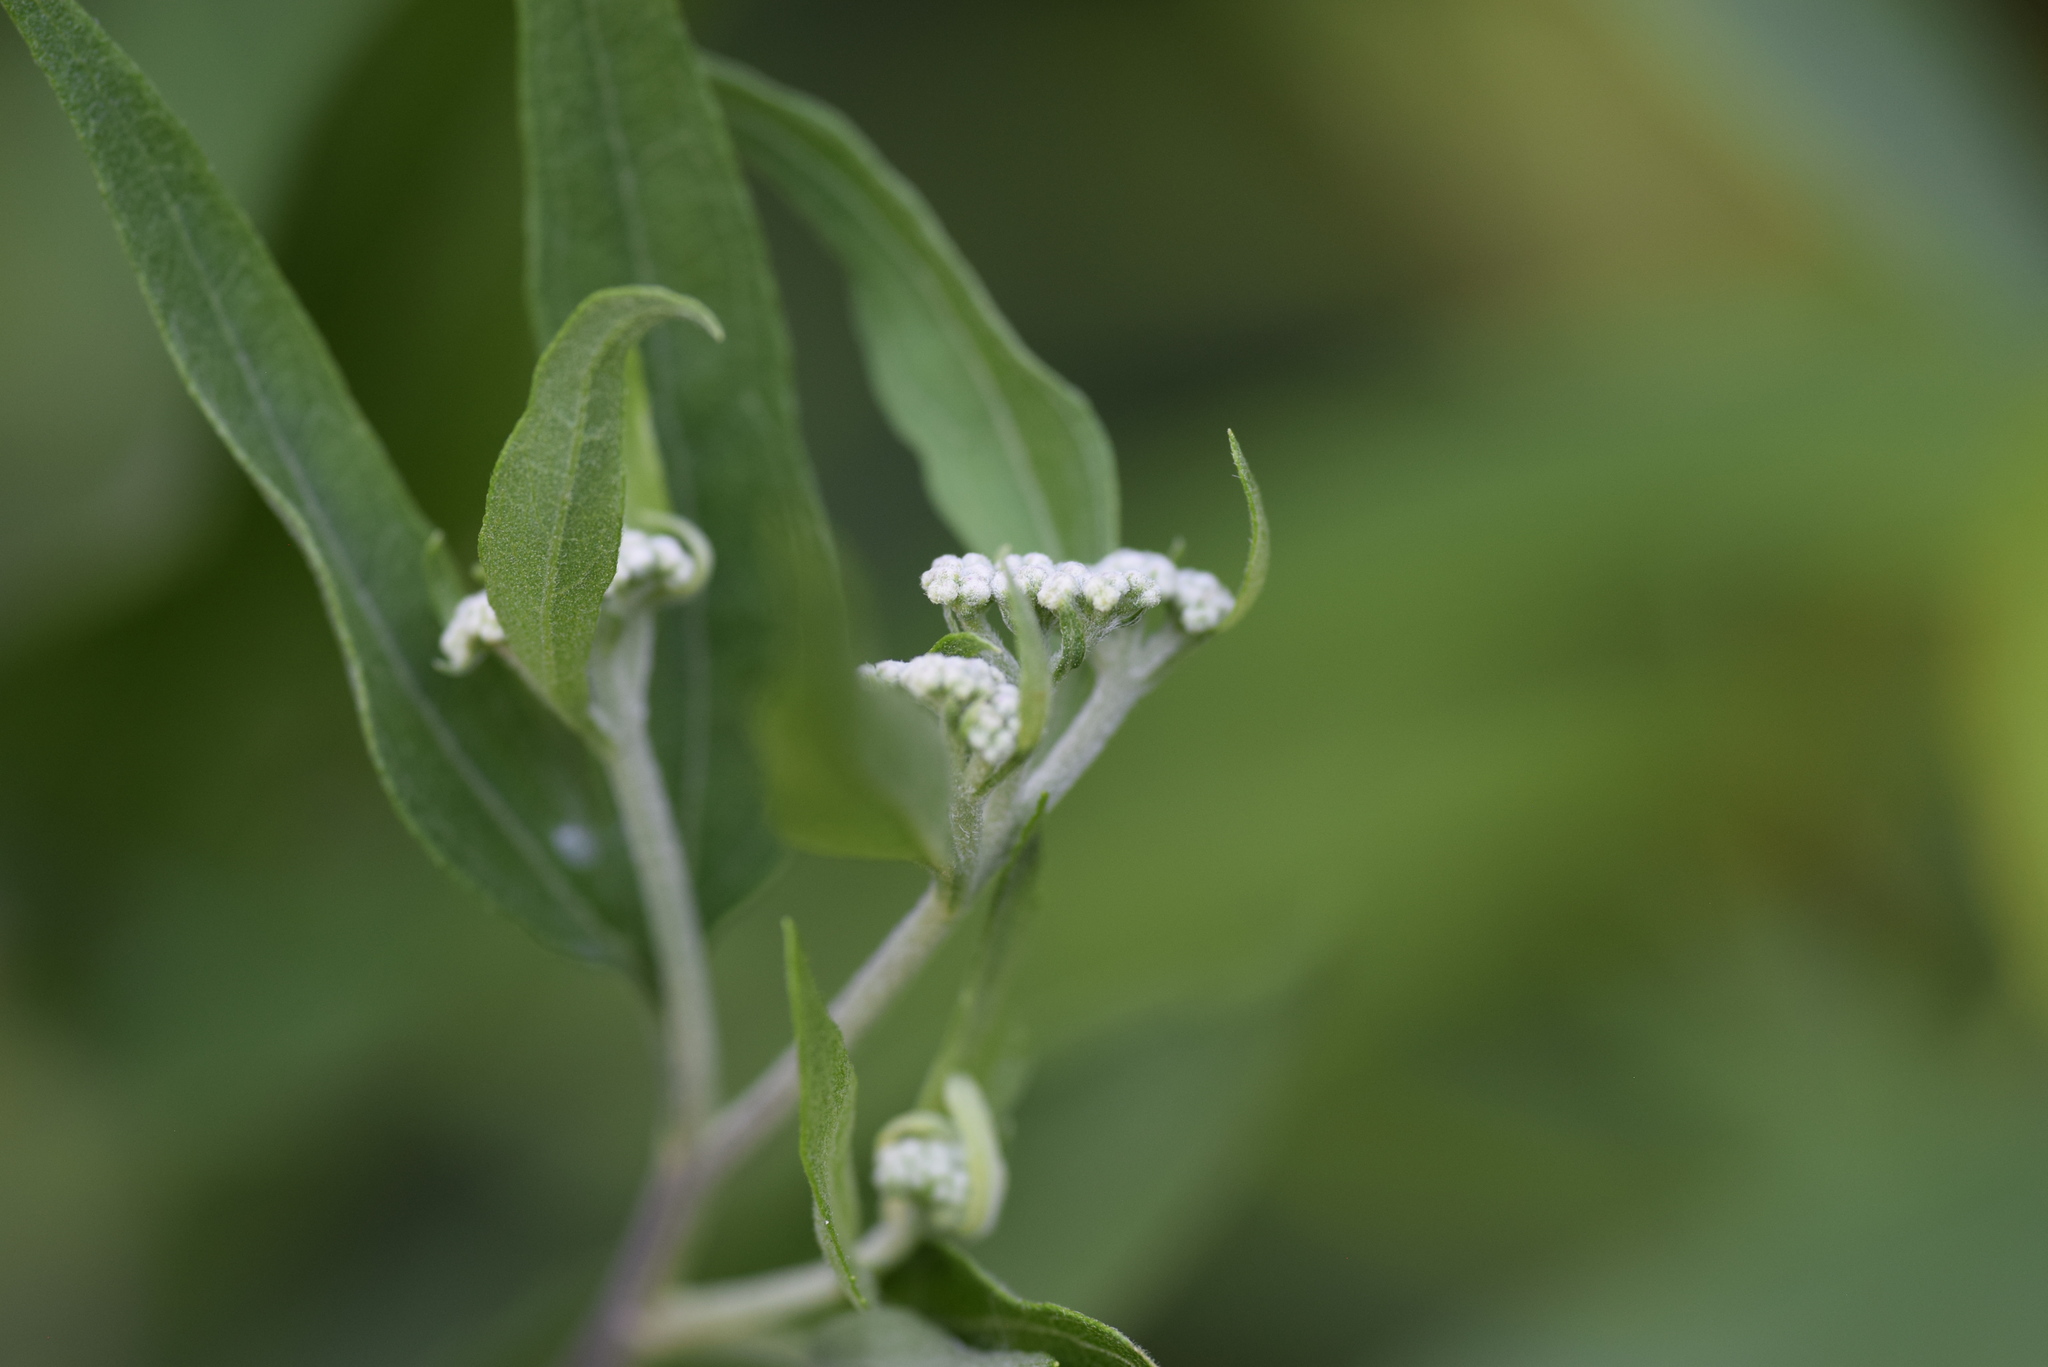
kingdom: Plantae
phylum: Tracheophyta
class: Magnoliopsida
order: Asterales
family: Asteraceae
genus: Eupatorium
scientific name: Eupatorium serotinum
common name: Late boneset
